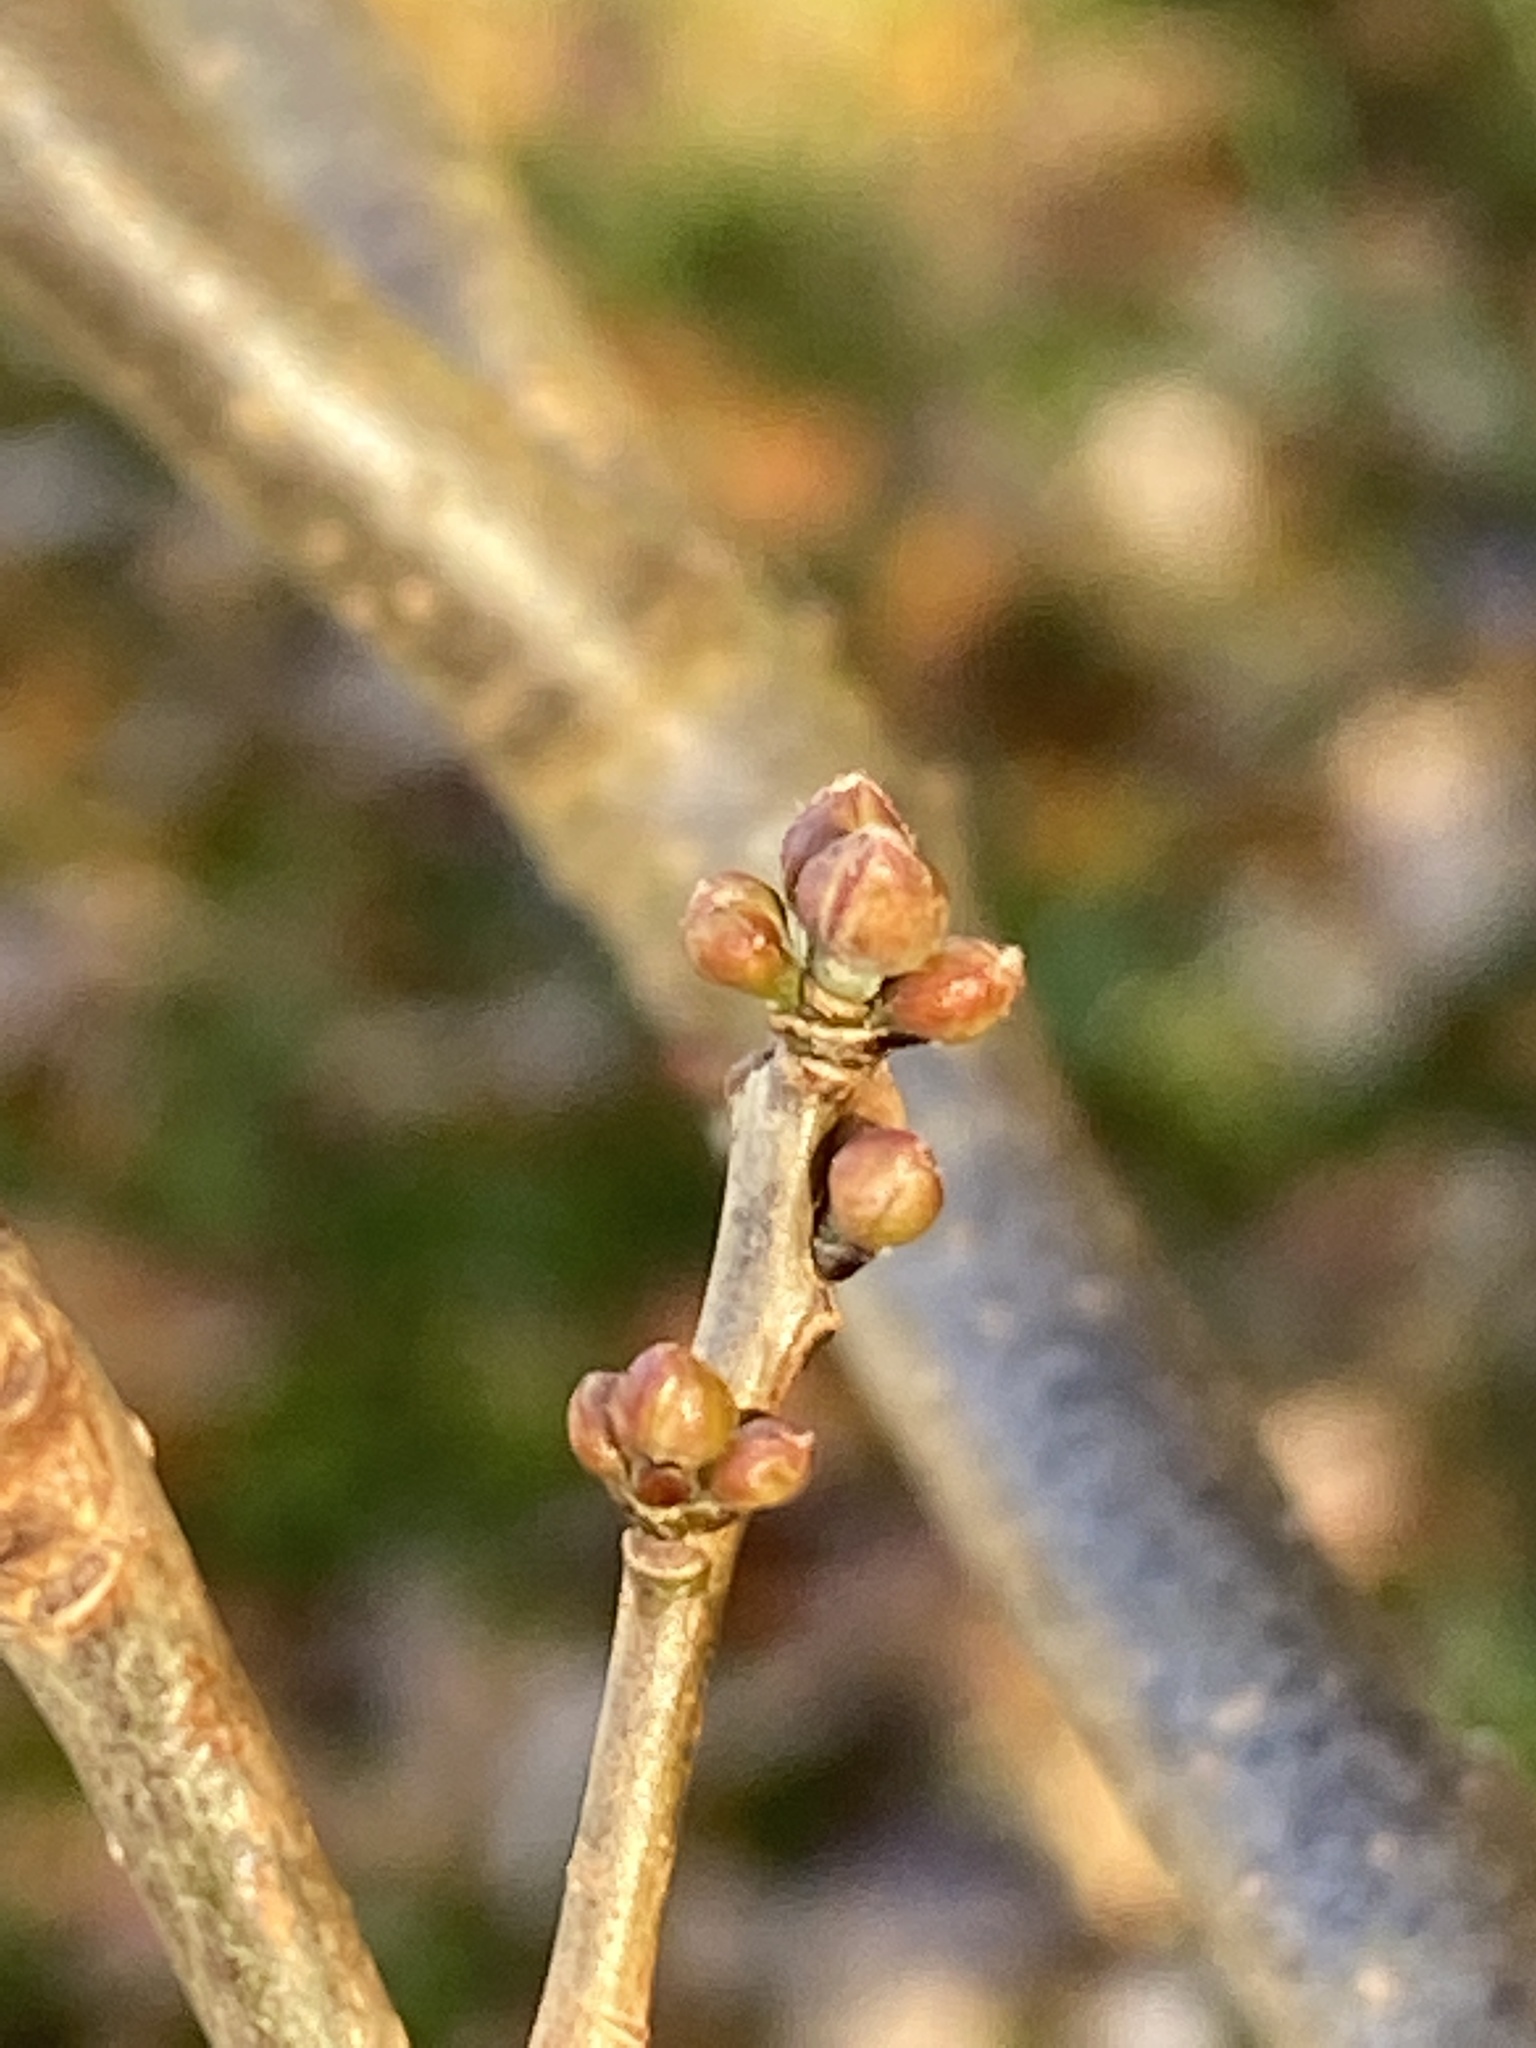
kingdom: Plantae
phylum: Tracheophyta
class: Magnoliopsida
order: Laurales
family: Lauraceae
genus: Lindera
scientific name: Lindera benzoin
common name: Spicebush
